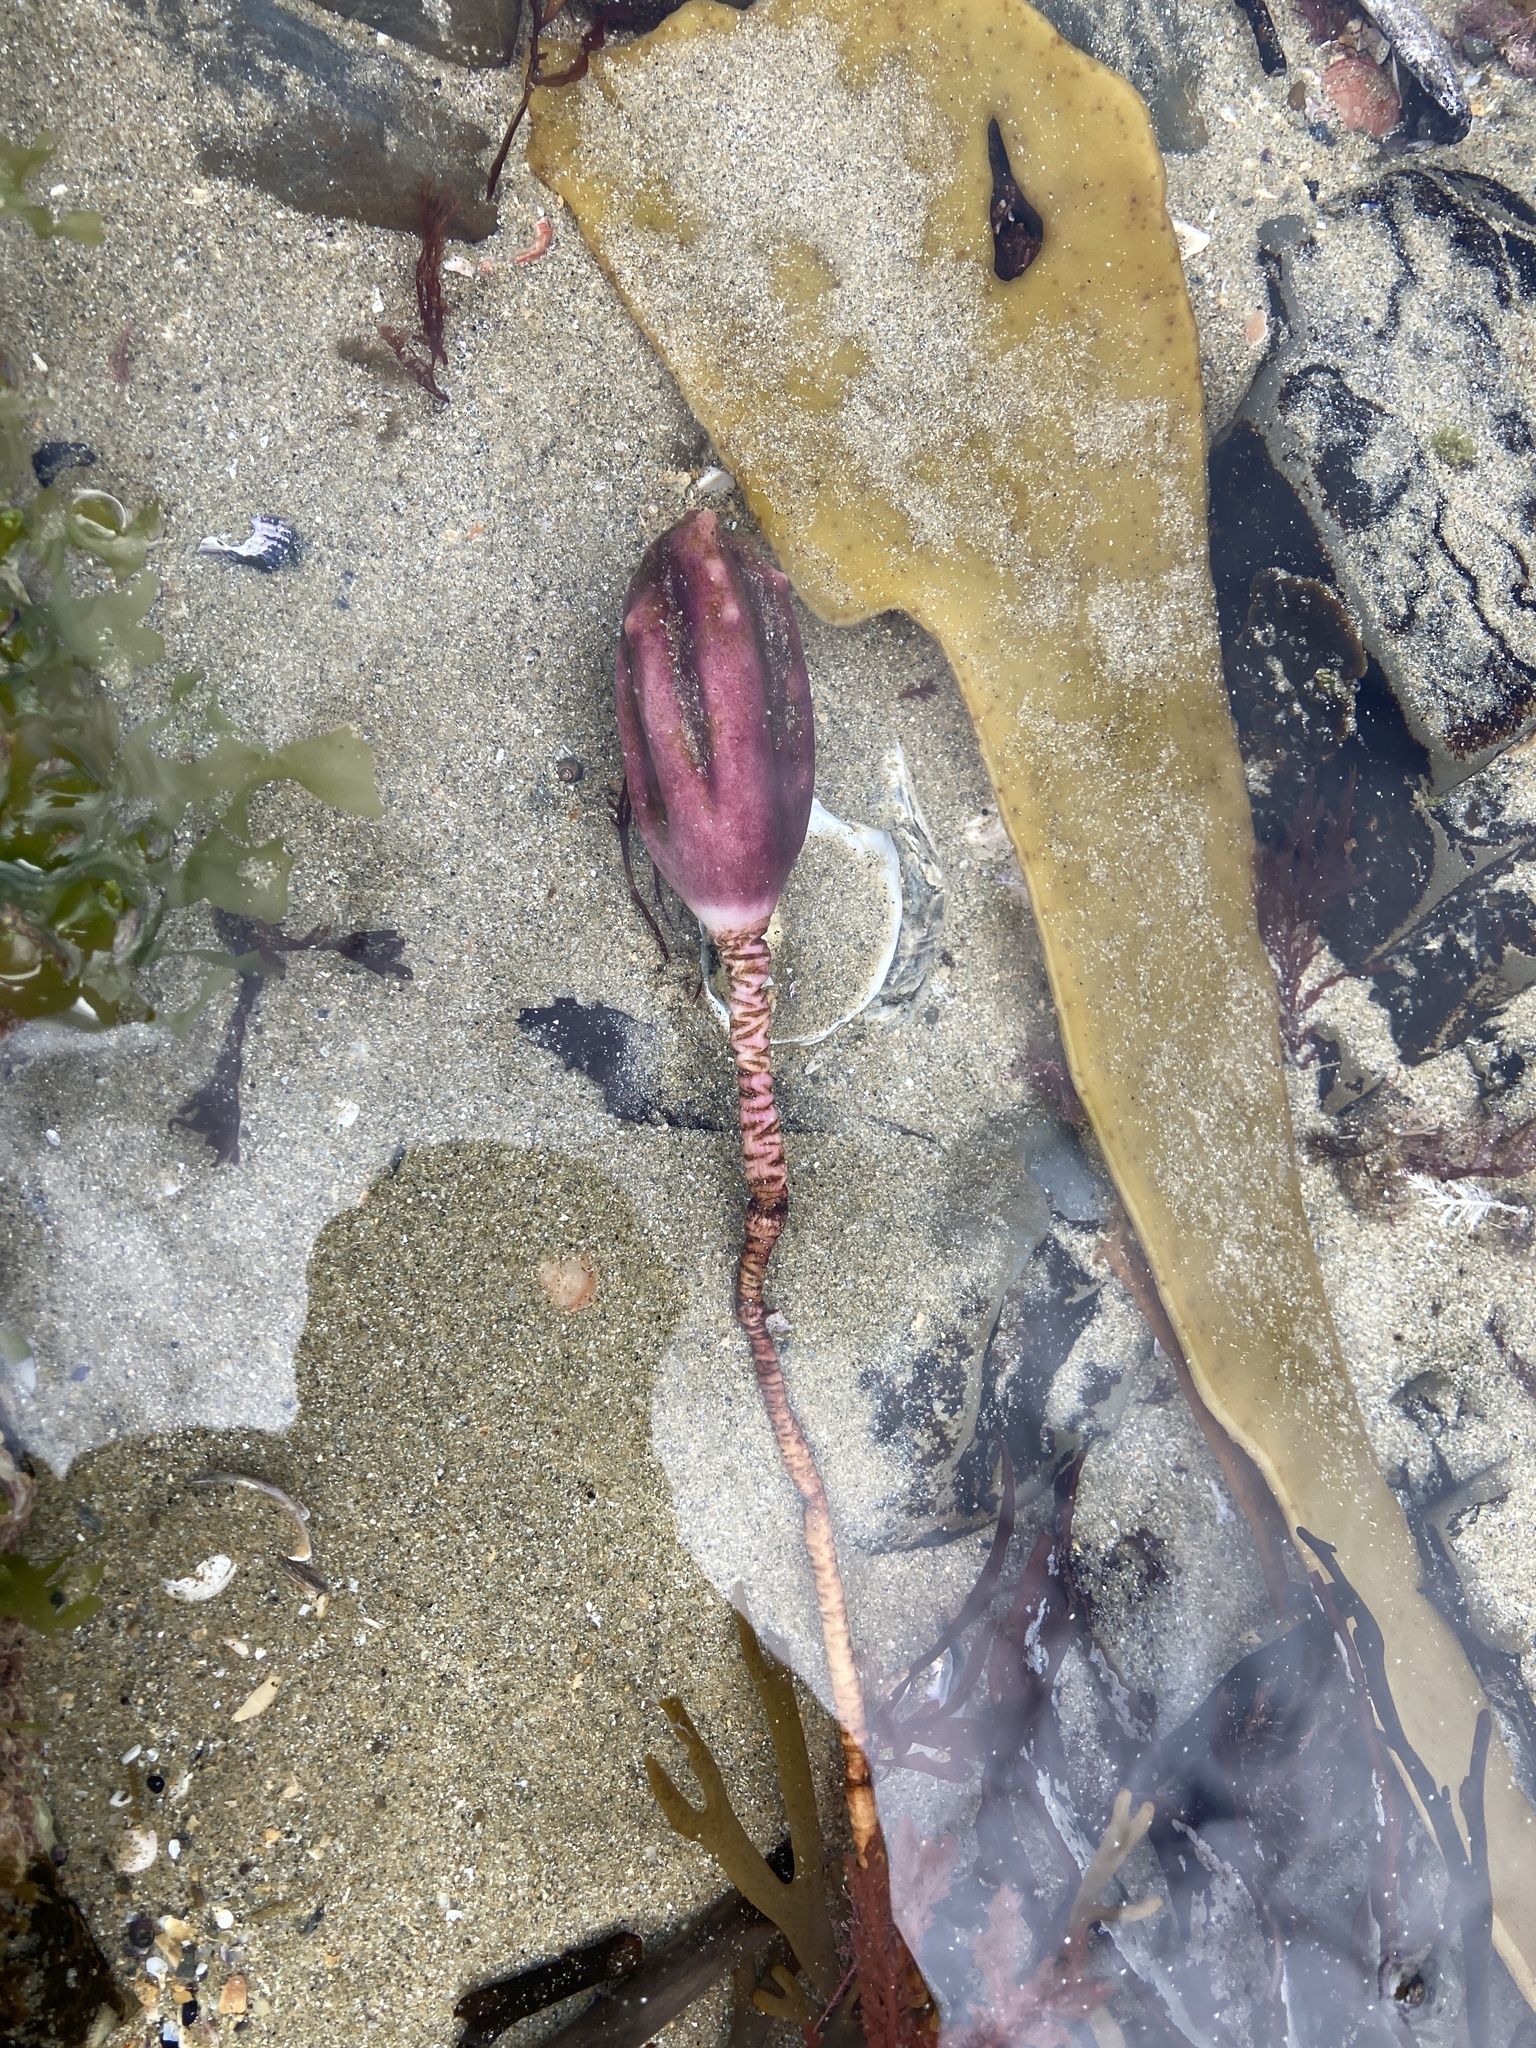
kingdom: Animalia
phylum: Chordata
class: Ascidiacea
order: Stolidobranchia
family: Pyuridae
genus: Pyura
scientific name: Pyura pachydermatina
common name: Sea tulip
